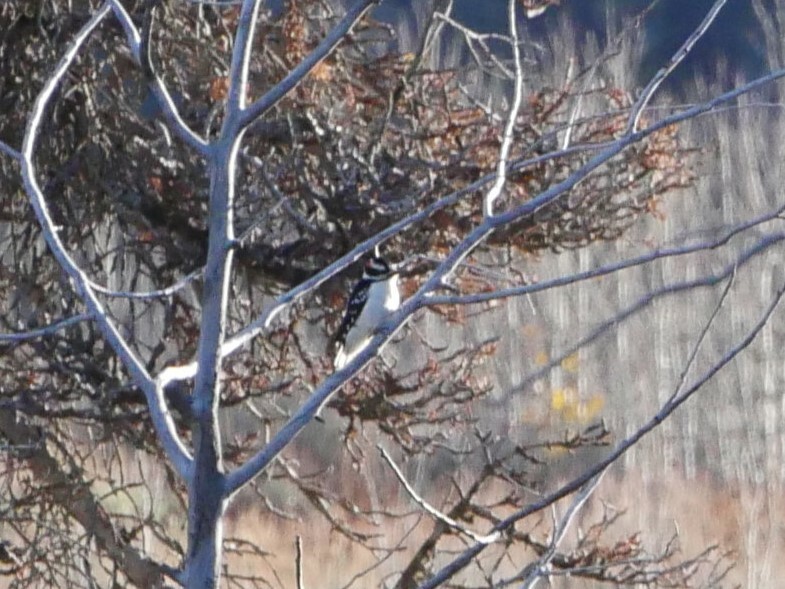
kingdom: Animalia
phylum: Chordata
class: Aves
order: Piciformes
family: Picidae
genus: Dryobates
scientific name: Dryobates pubescens
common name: Downy woodpecker
